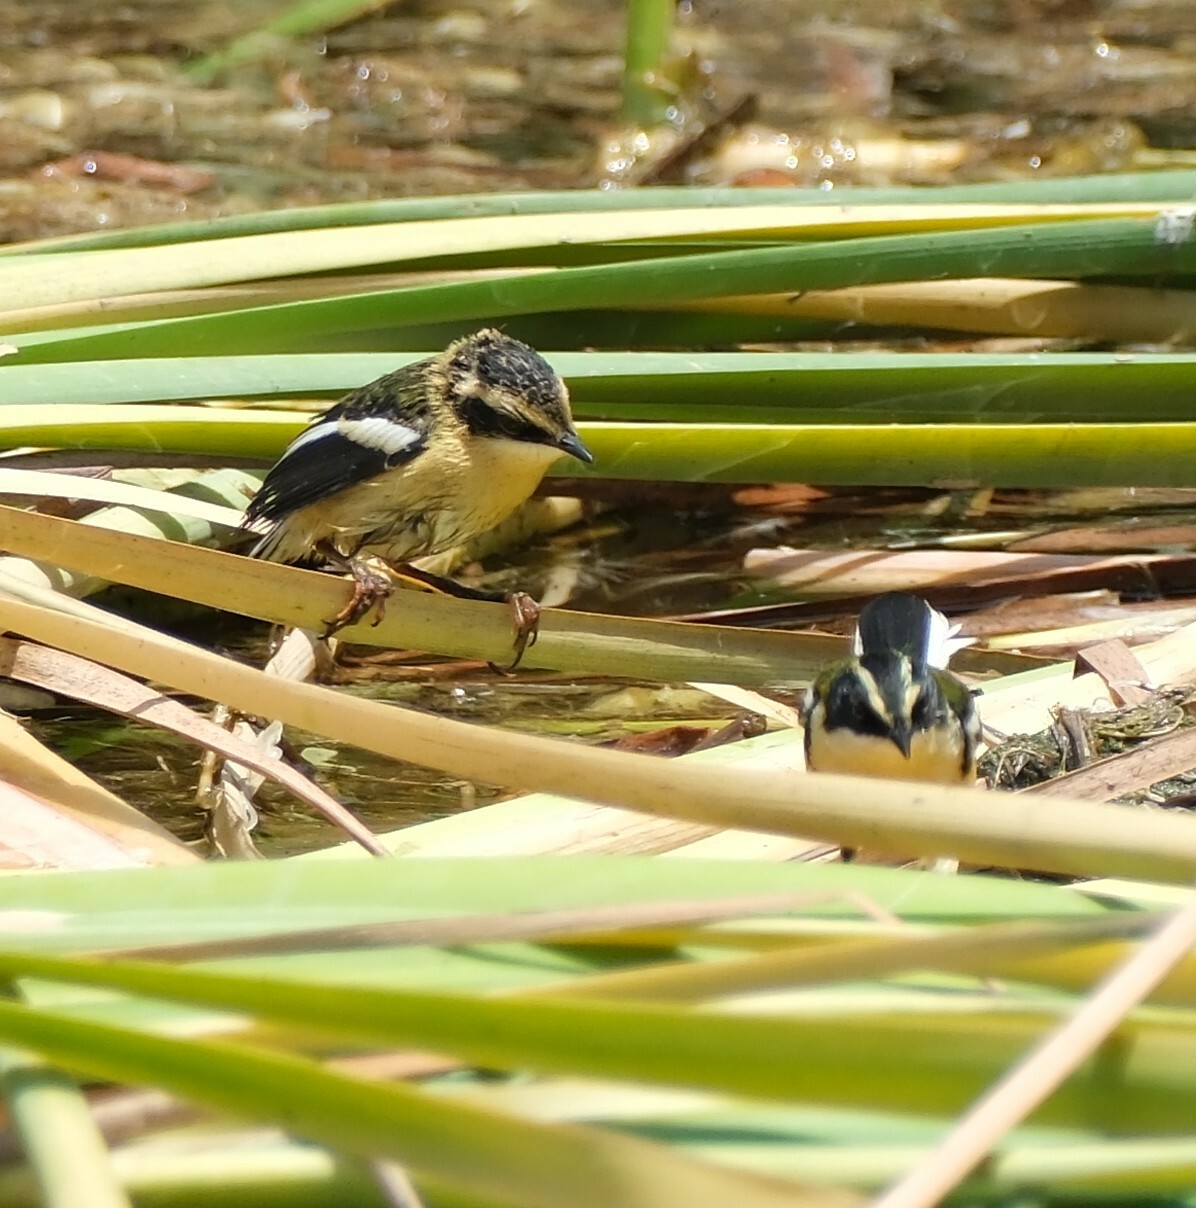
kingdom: Animalia
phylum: Chordata
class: Aves
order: Passeriformes
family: Tyrannidae
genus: Tachuris
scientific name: Tachuris rubrigastra
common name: Many-colored rush tyrant
